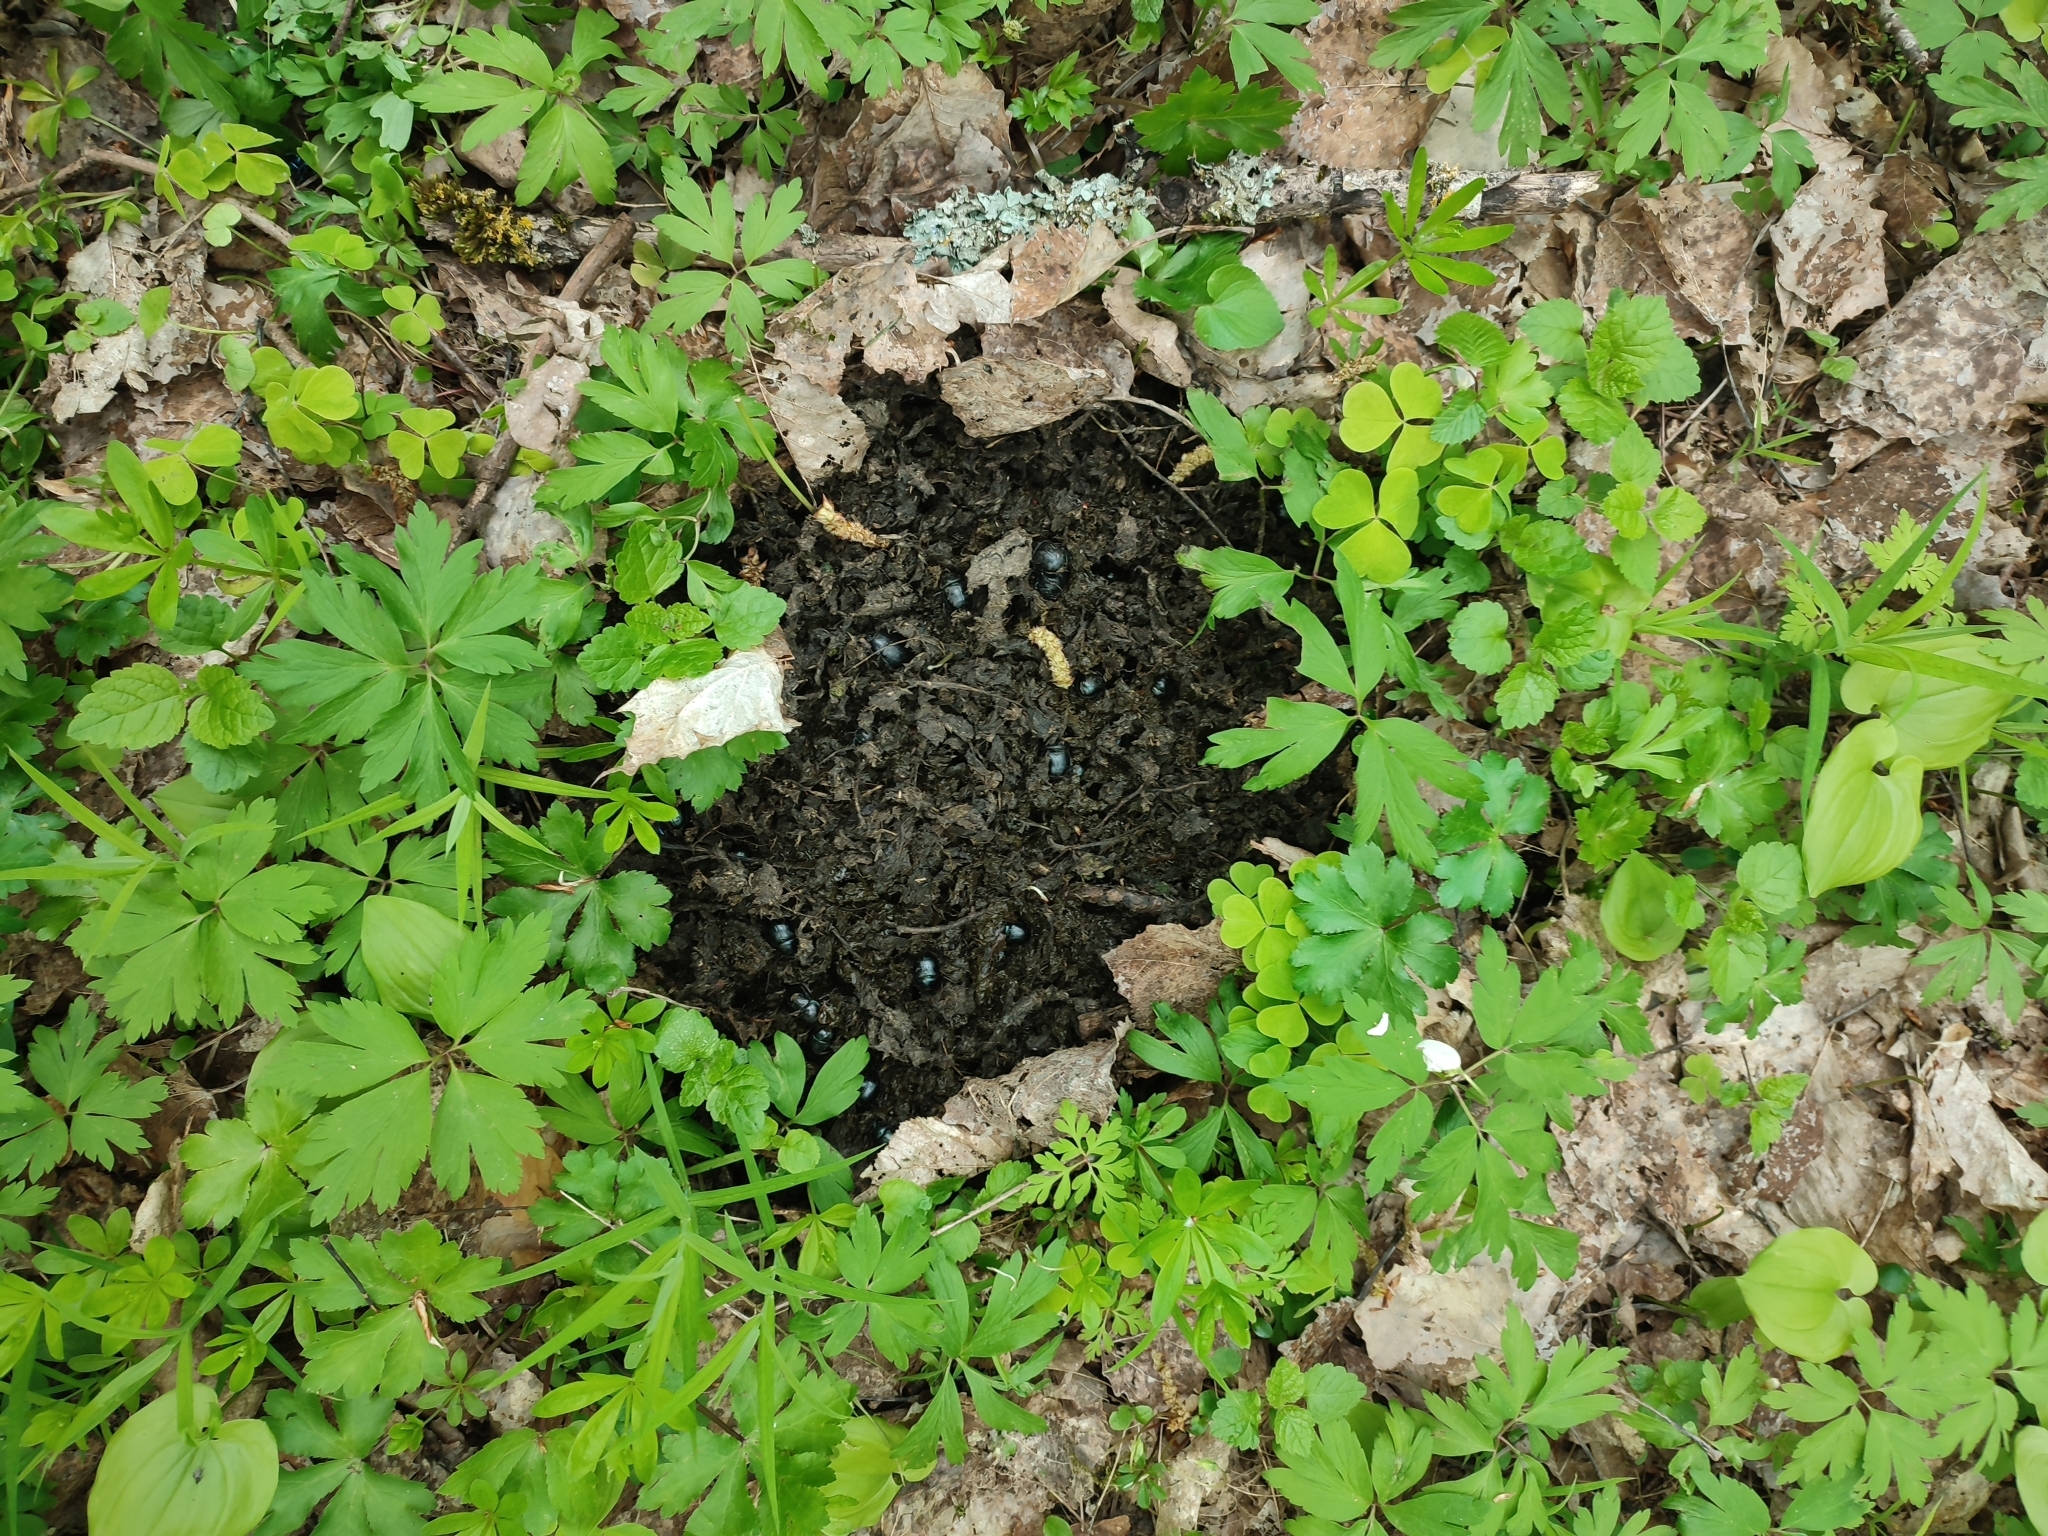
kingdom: Animalia
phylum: Chordata
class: Mammalia
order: Artiodactyla
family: Bovidae
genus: Bison
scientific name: Bison bonasus
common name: European bison
